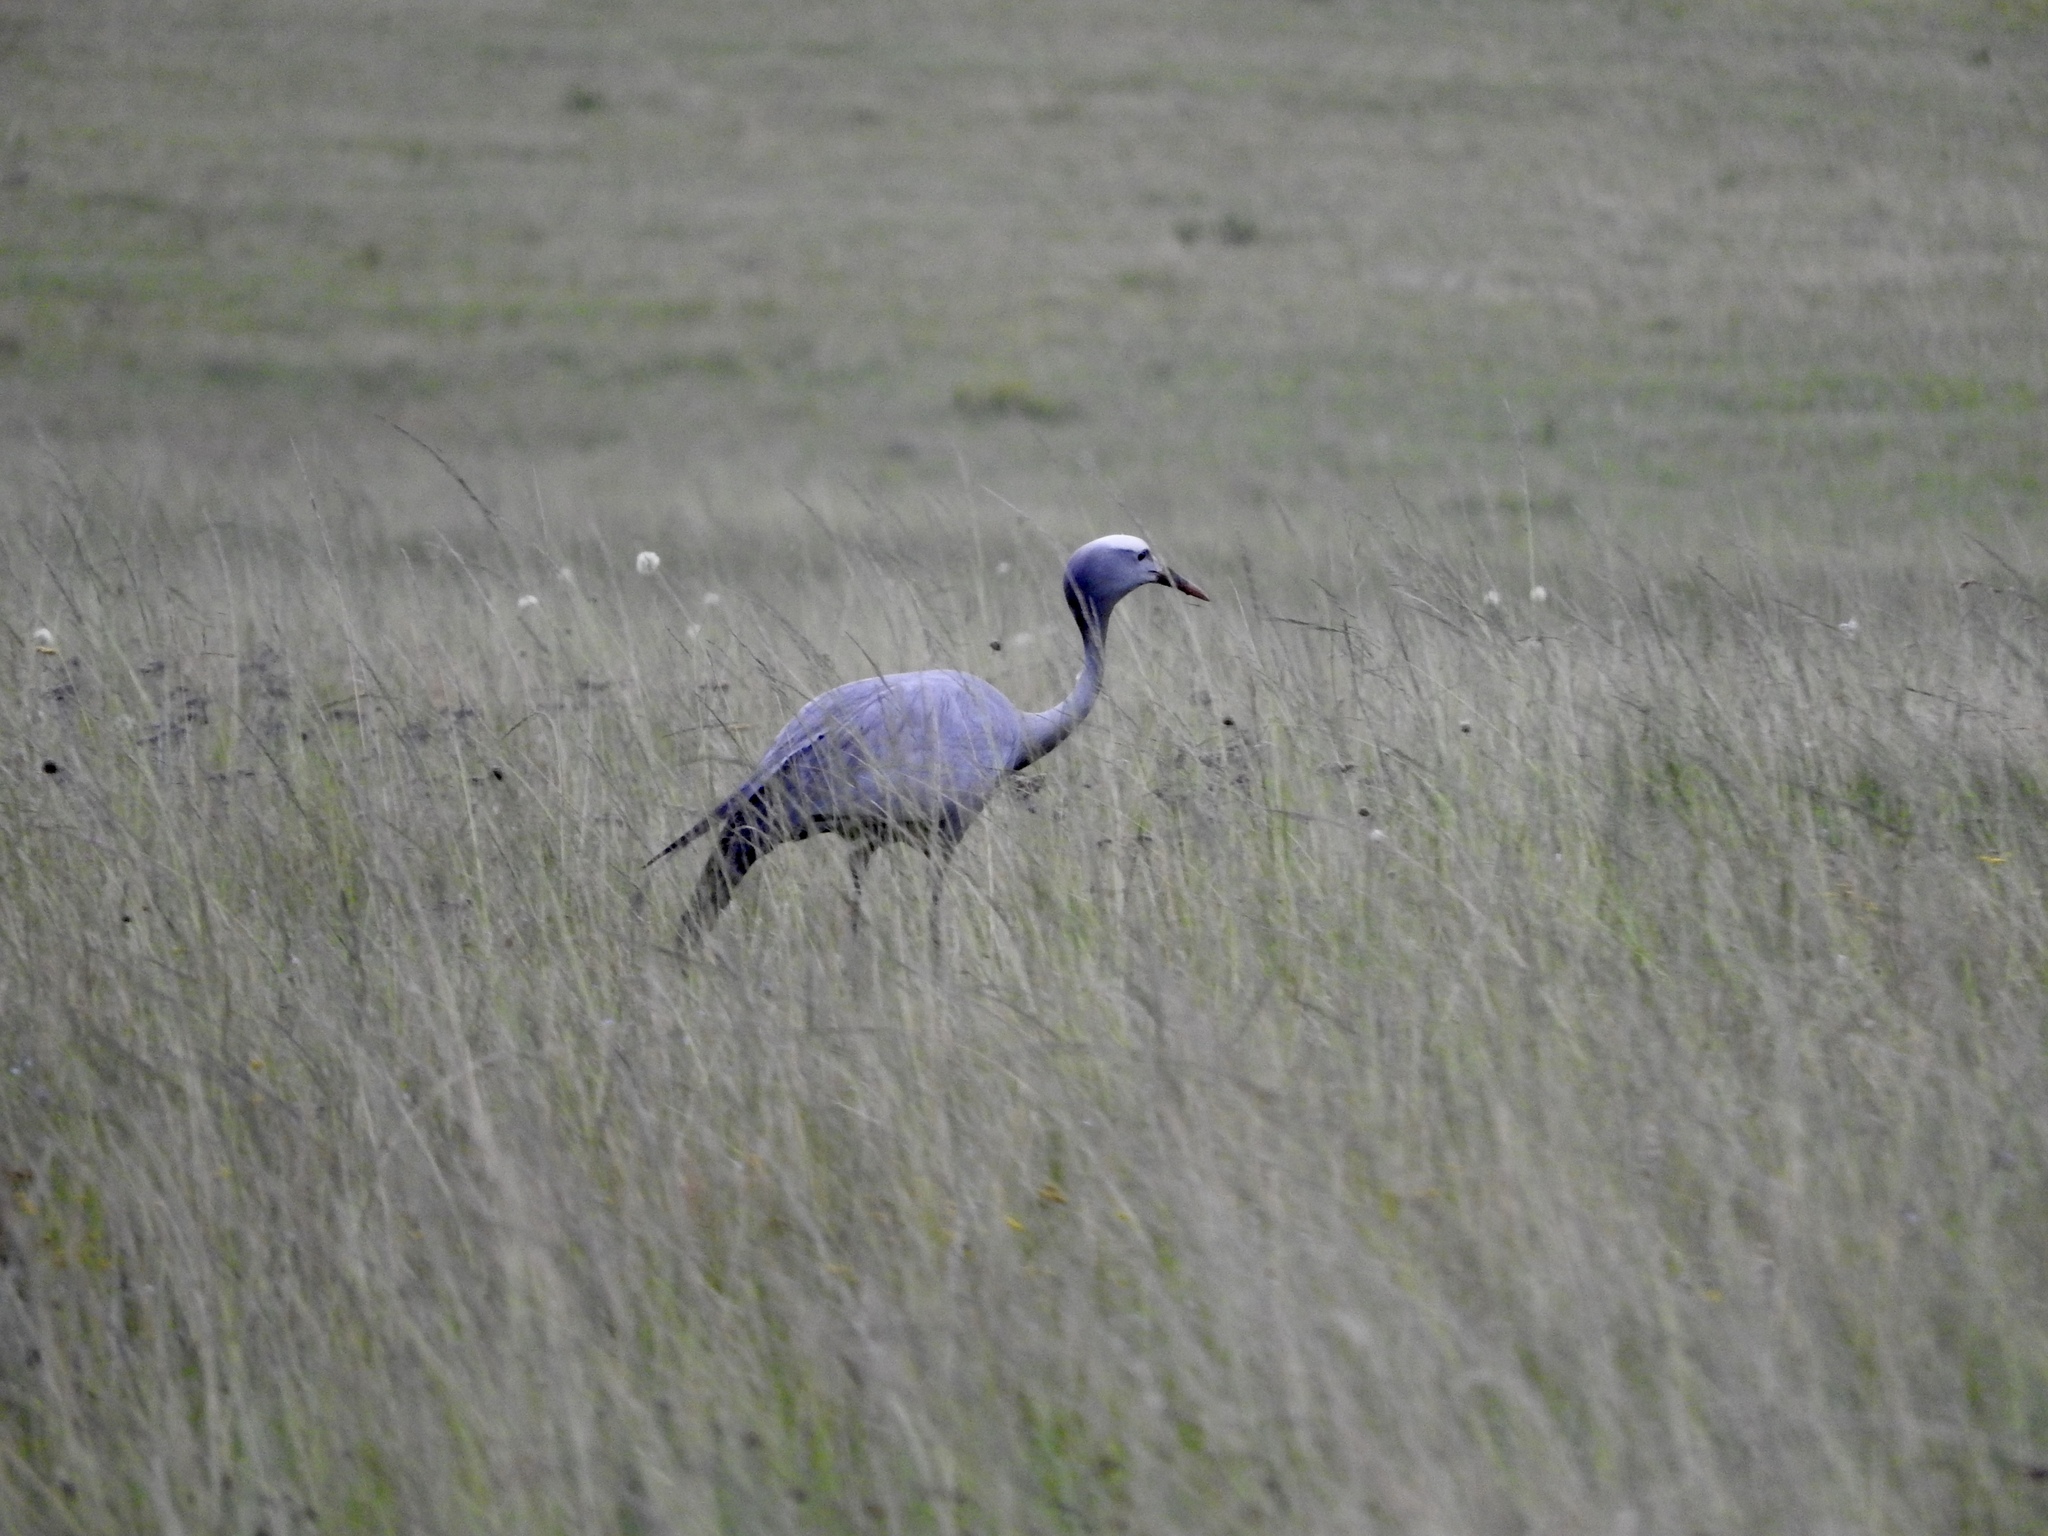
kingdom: Animalia
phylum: Chordata
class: Aves
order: Gruiformes
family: Gruidae
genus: Anthropoides
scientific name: Anthropoides paradiseus
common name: Blue crane
